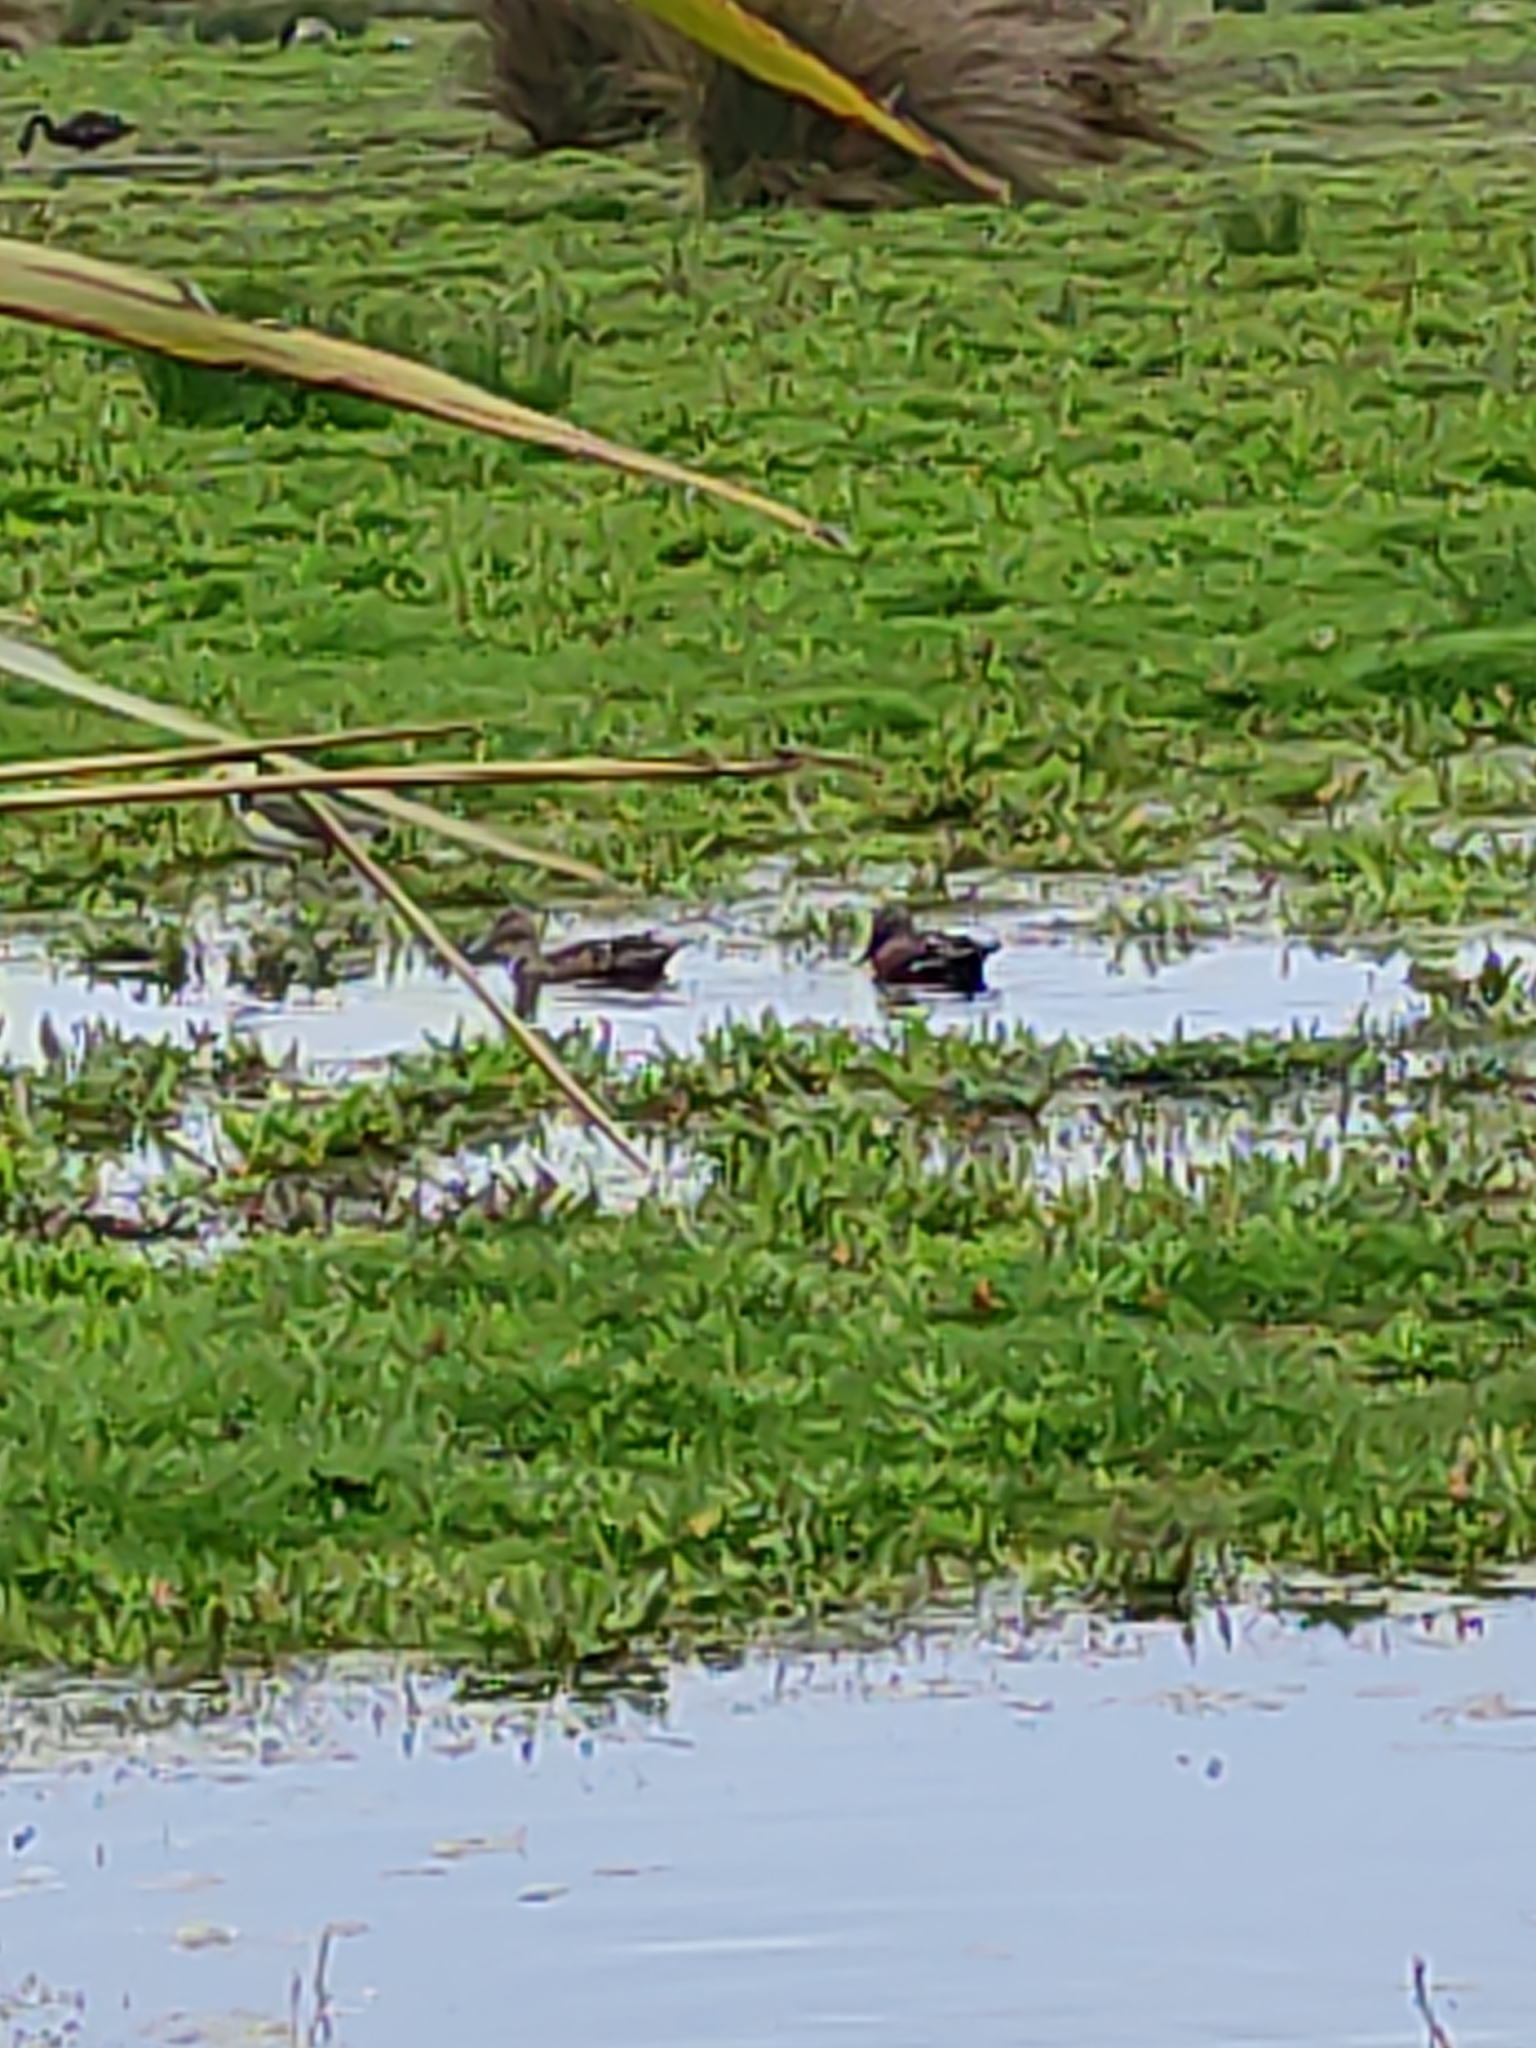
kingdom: Animalia
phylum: Chordata
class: Aves
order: Anseriformes
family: Anatidae
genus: Spatula
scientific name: Spatula rhynchotis
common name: Australian shoveler
